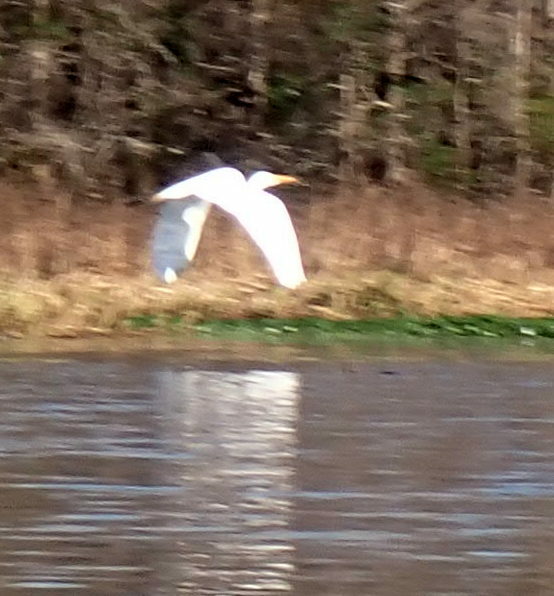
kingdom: Animalia
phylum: Chordata
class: Aves
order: Pelecaniformes
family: Ardeidae
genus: Ardea
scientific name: Ardea alba
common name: Great egret
